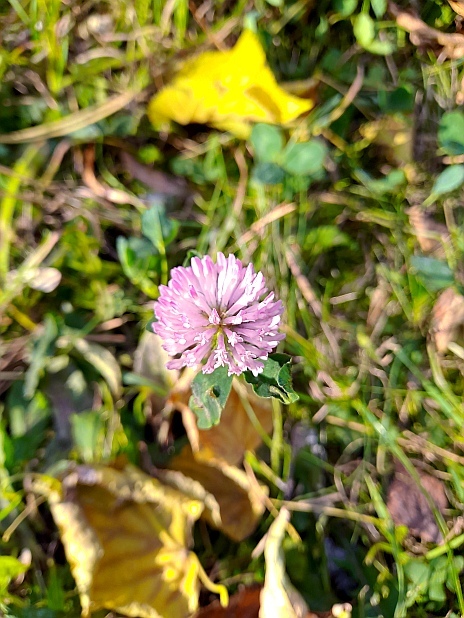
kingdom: Plantae
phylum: Tracheophyta
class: Magnoliopsida
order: Fabales
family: Fabaceae
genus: Trifolium
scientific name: Trifolium pratense
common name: Red clover
